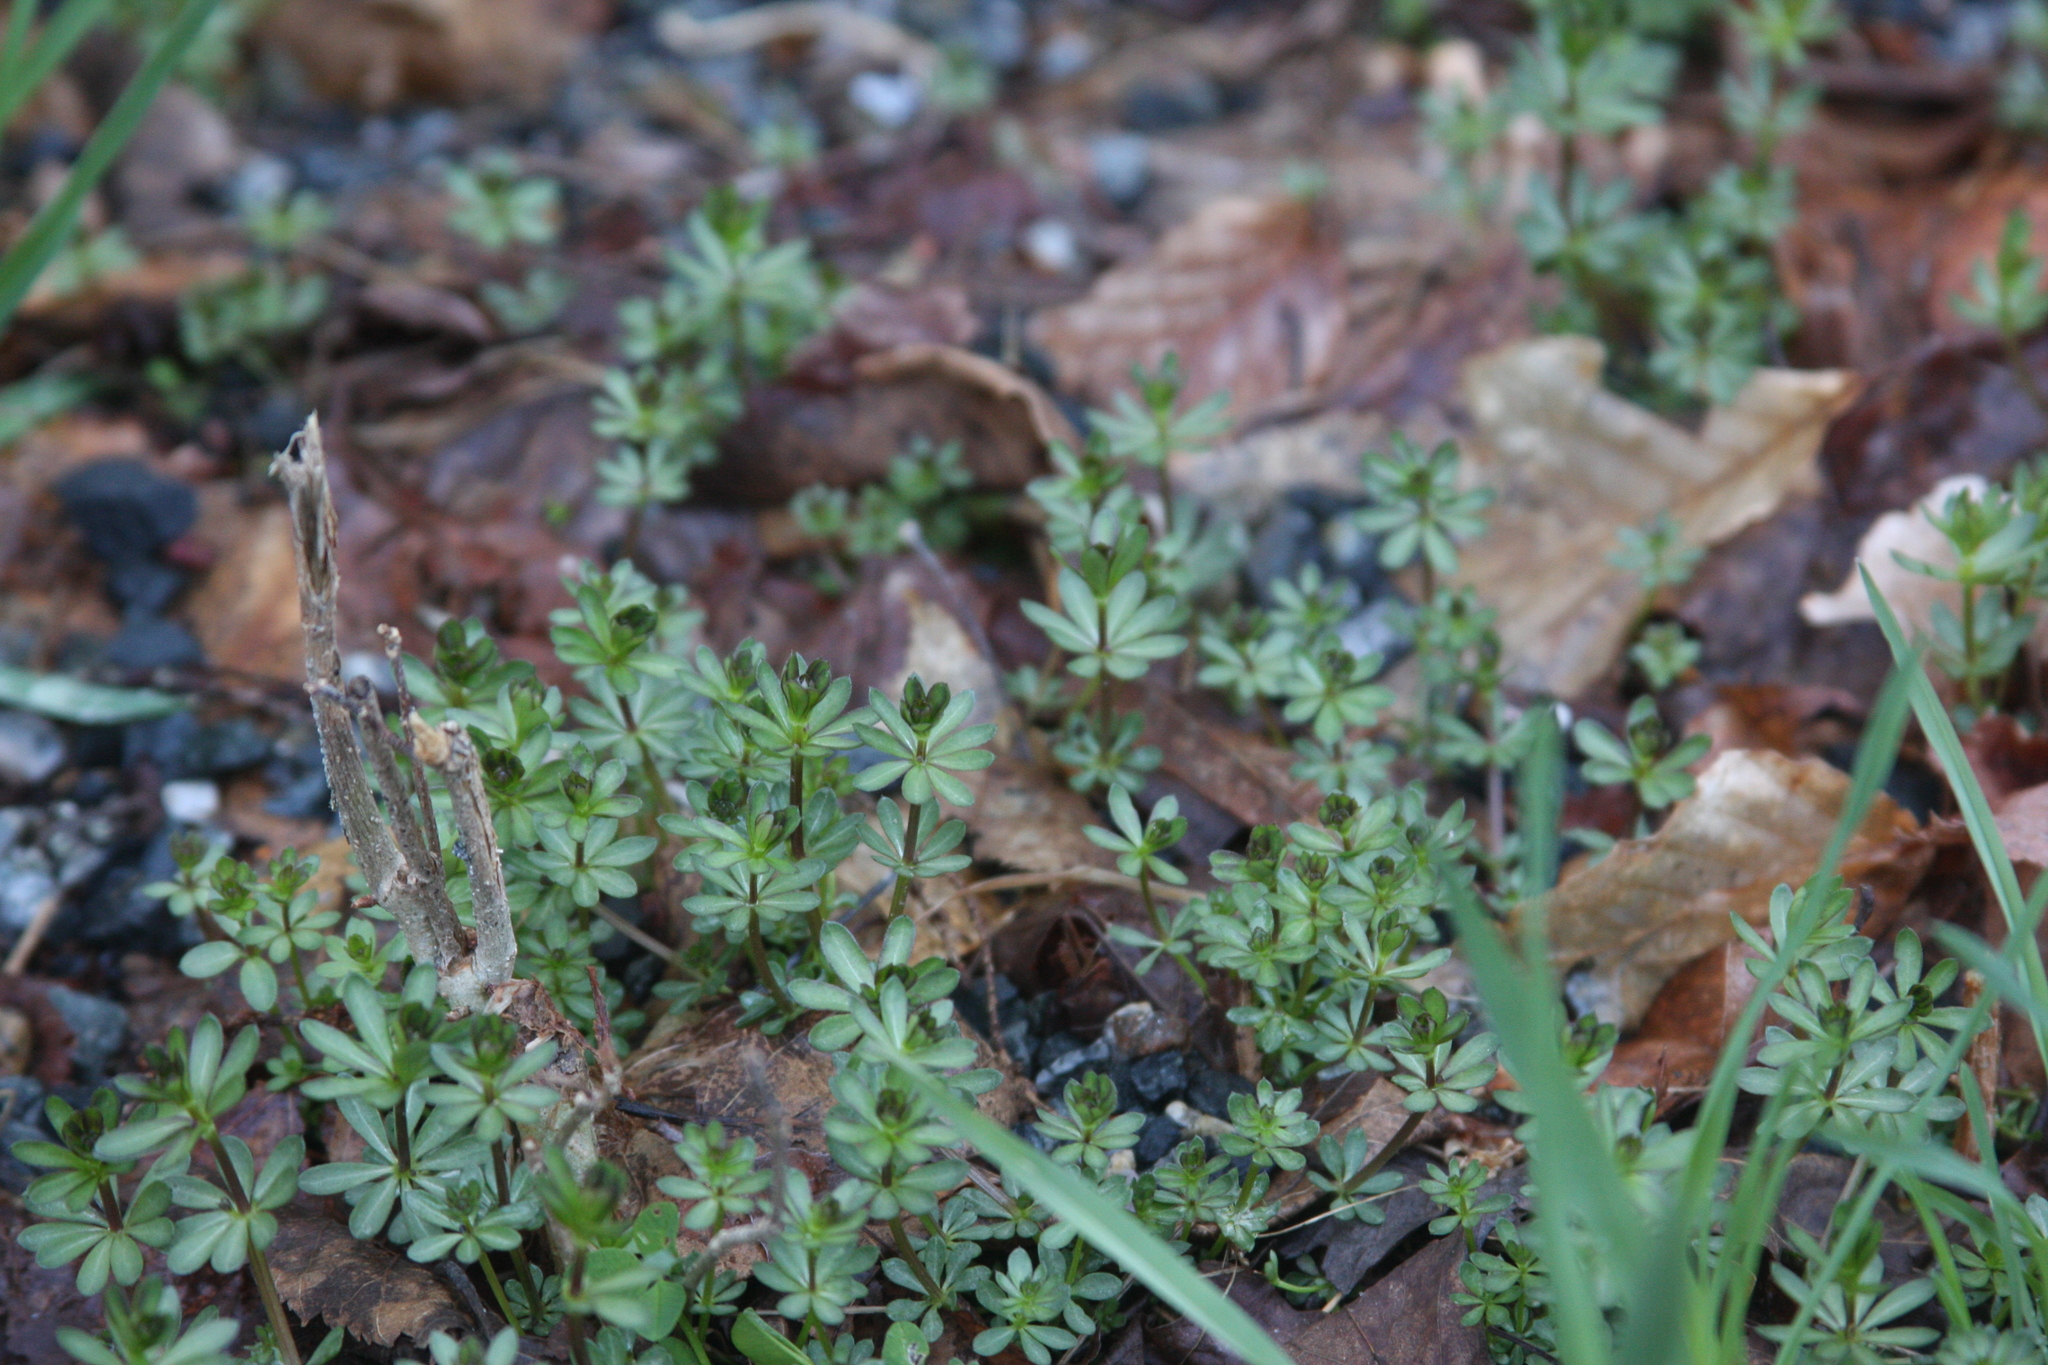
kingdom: Plantae
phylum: Tracheophyta
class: Magnoliopsida
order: Gentianales
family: Rubiaceae
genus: Galium
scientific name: Galium mollugo
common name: Hedge bedstraw
